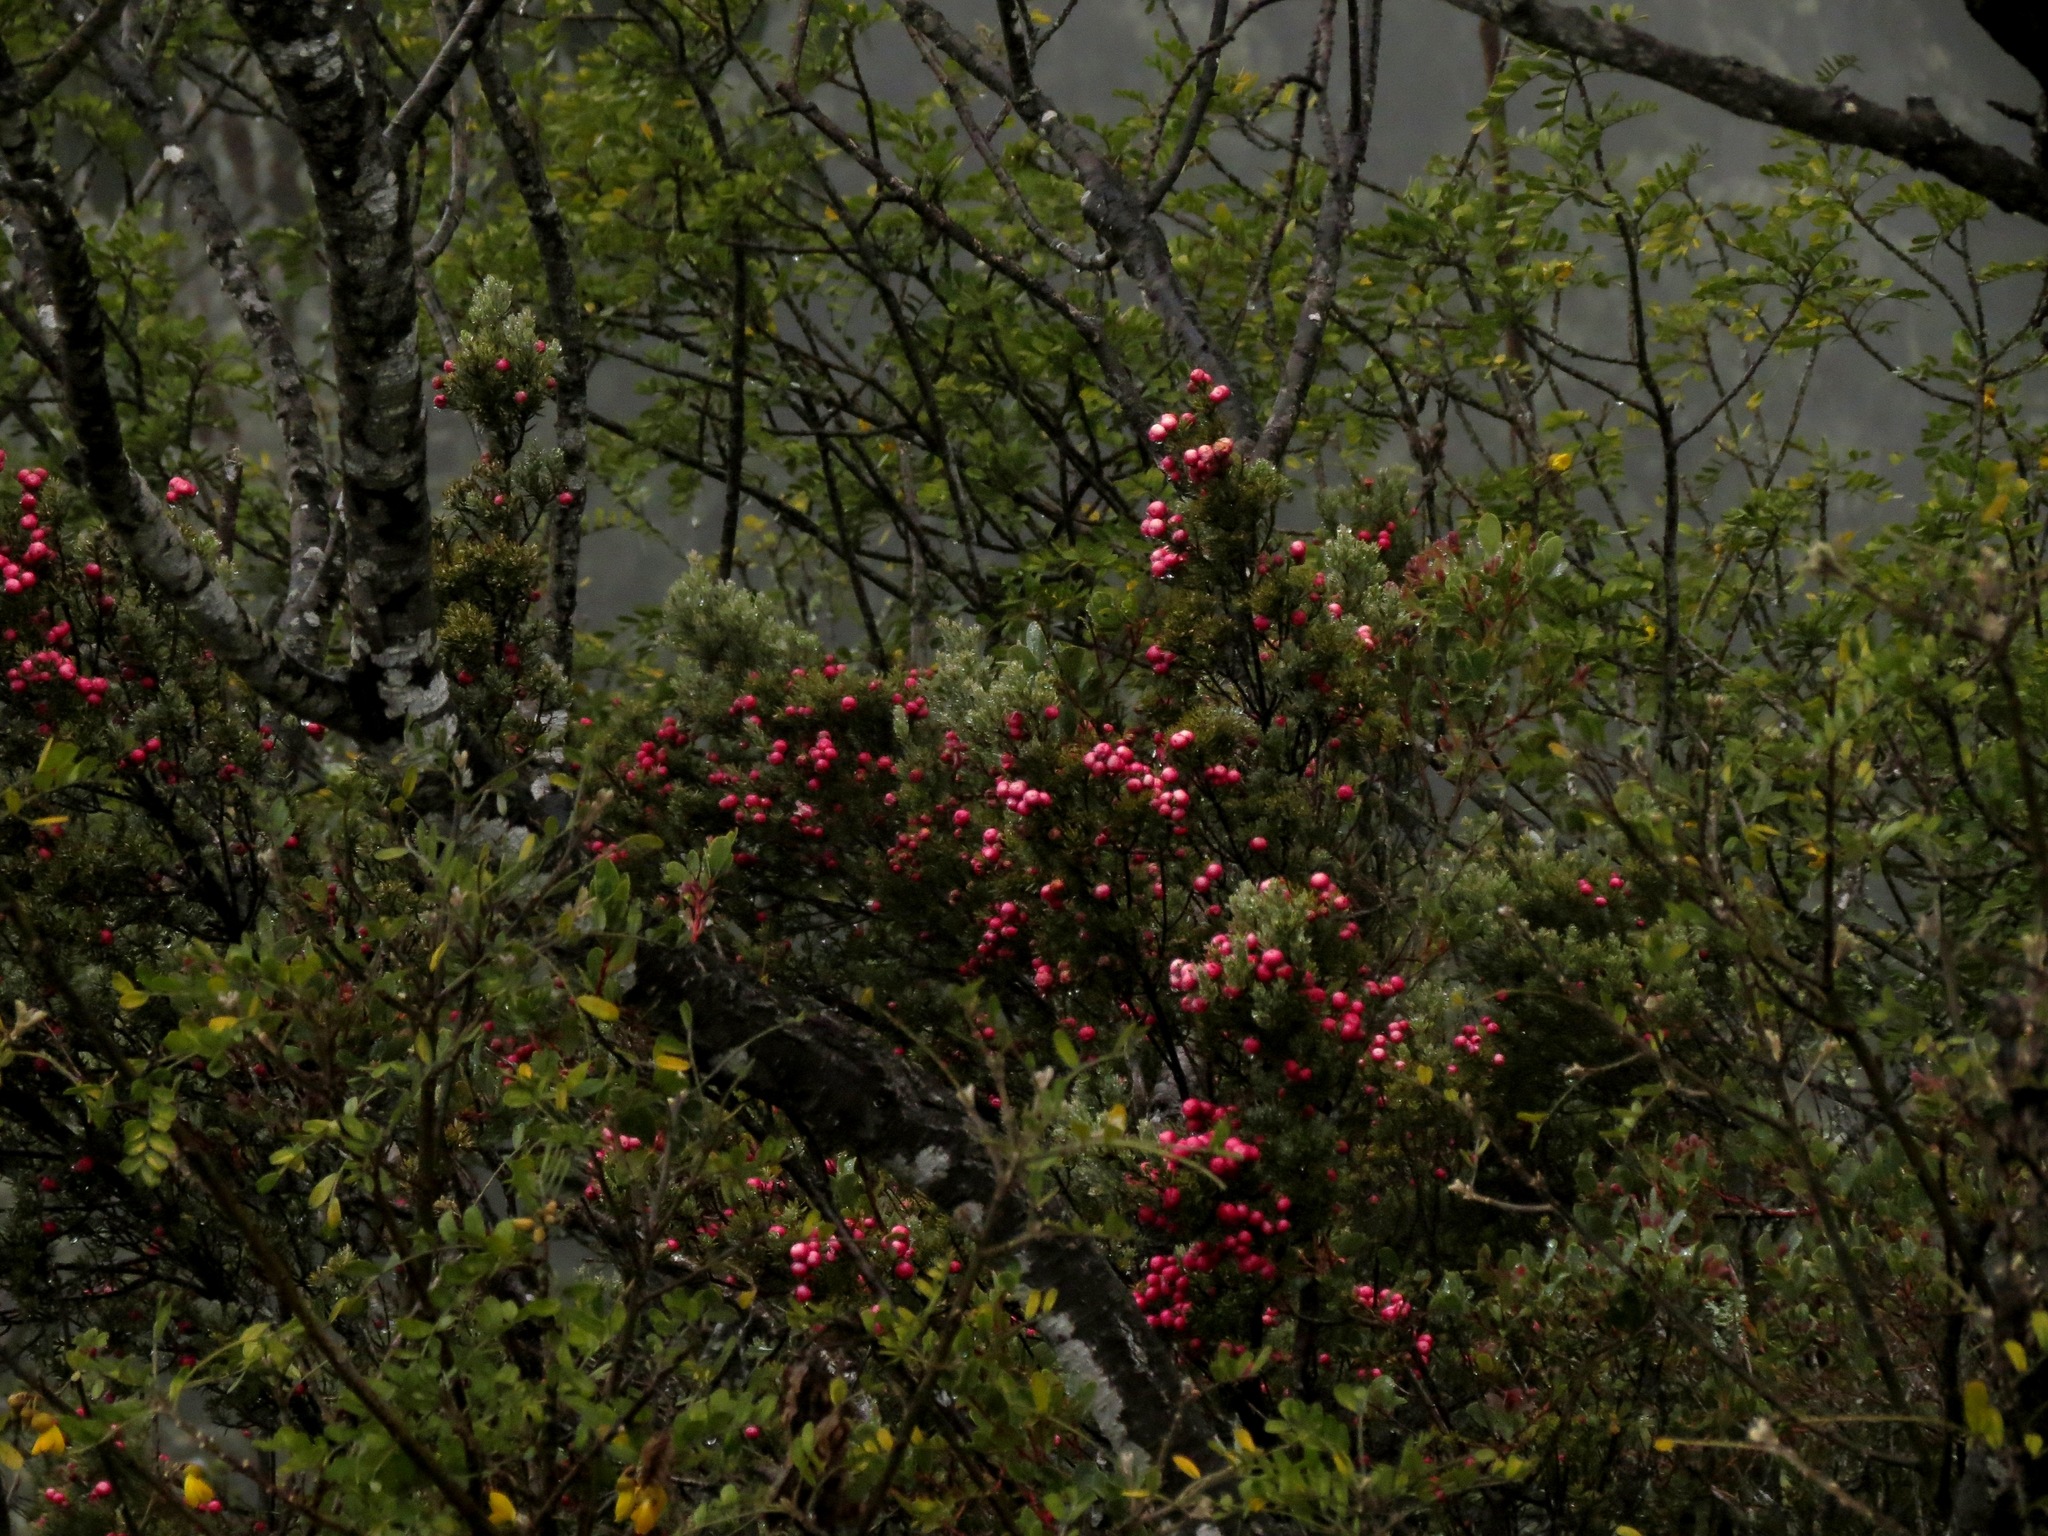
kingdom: Plantae
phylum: Tracheophyta
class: Magnoliopsida
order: Ericales
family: Ericaceae
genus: Leptecophylla
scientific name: Leptecophylla tameiameiae
